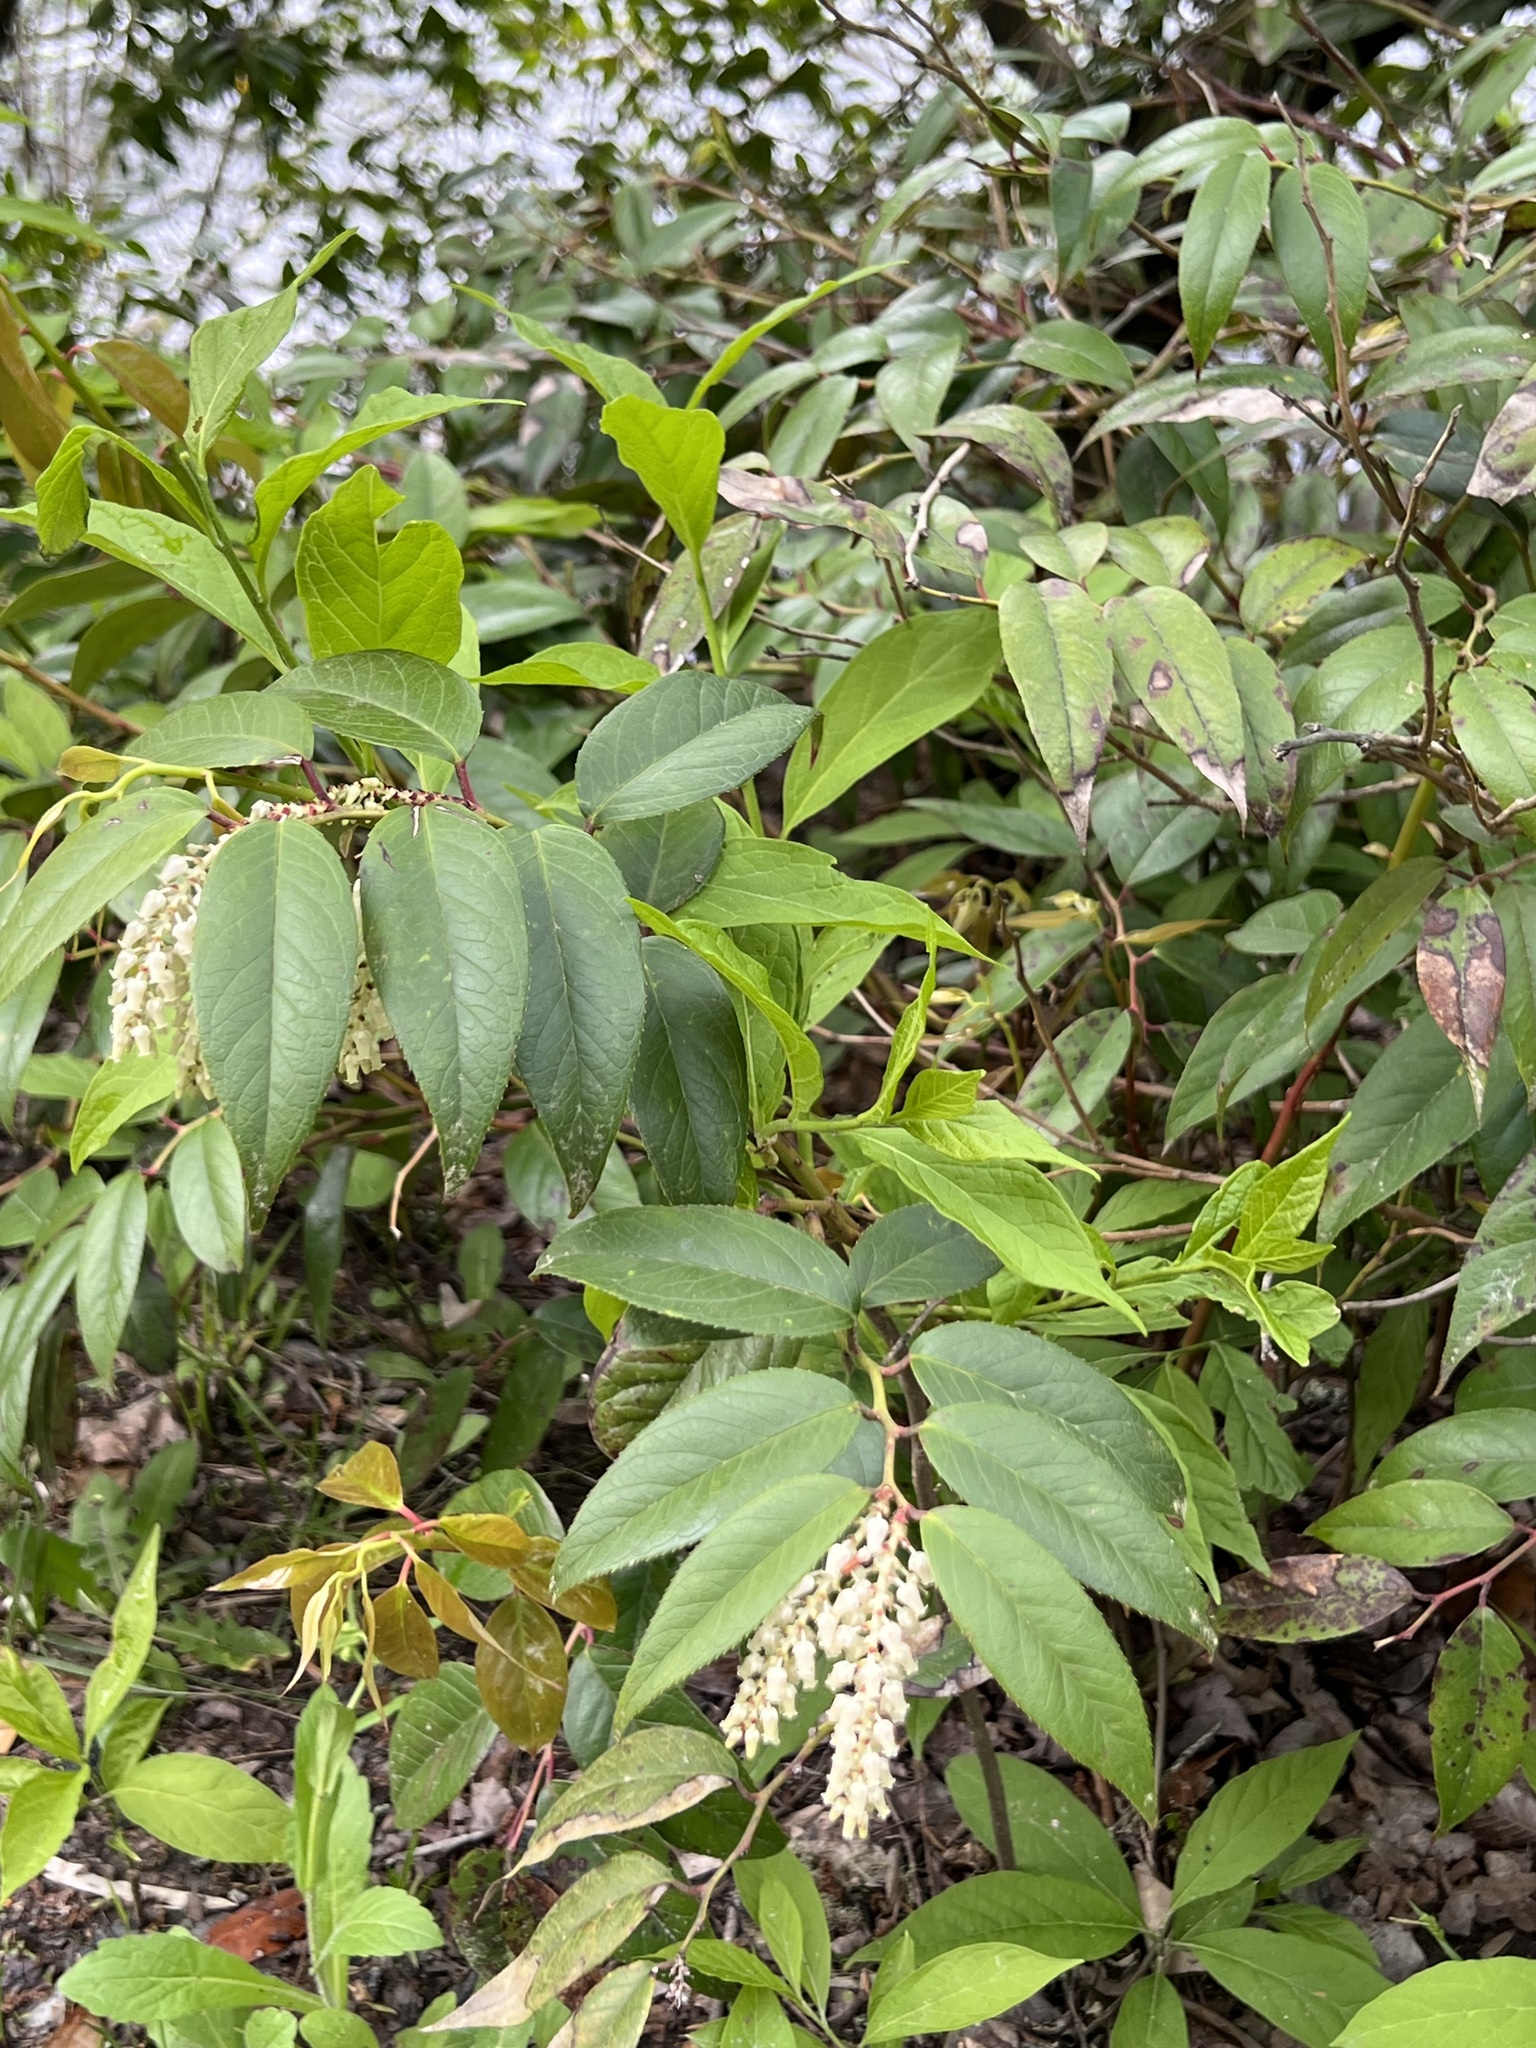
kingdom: Plantae
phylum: Tracheophyta
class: Magnoliopsida
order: Ericales
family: Ericaceae
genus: Leucothoe
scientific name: Leucothoe fontanesiana
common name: Fetterbush
